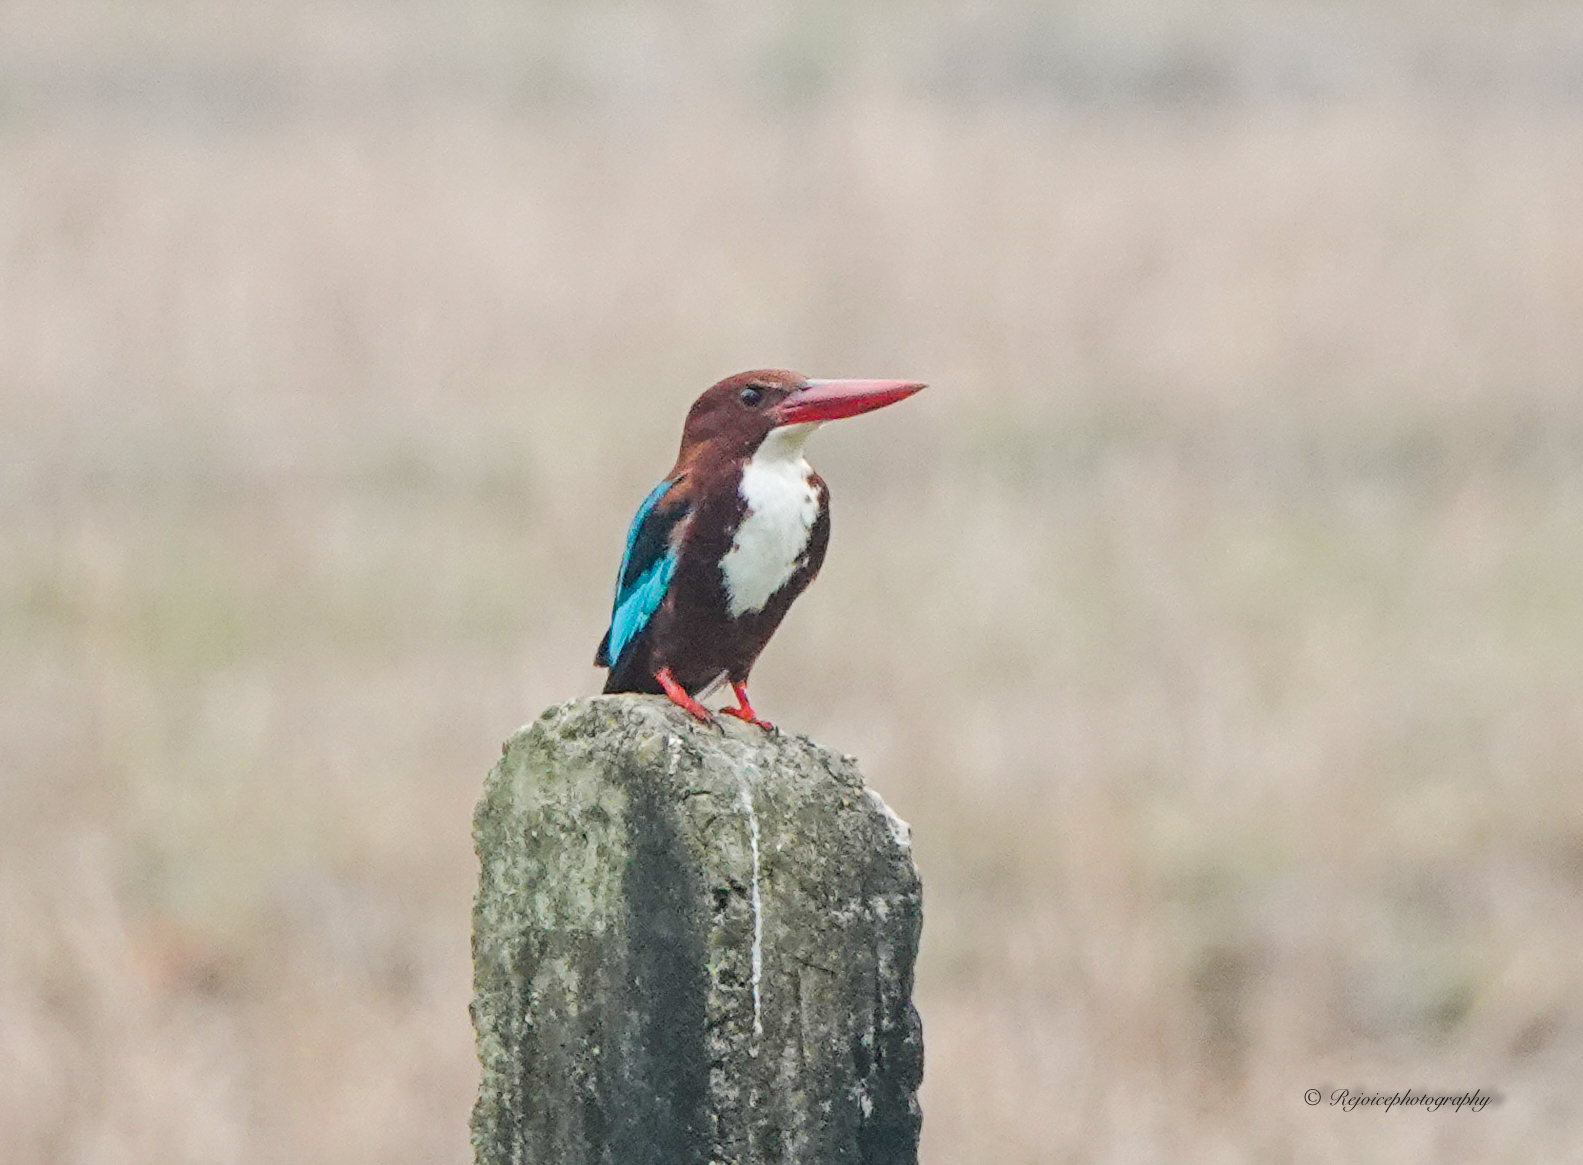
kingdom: Animalia
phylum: Chordata
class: Aves
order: Coraciiformes
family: Alcedinidae
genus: Halcyon
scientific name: Halcyon smyrnensis
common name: White-throated kingfisher
